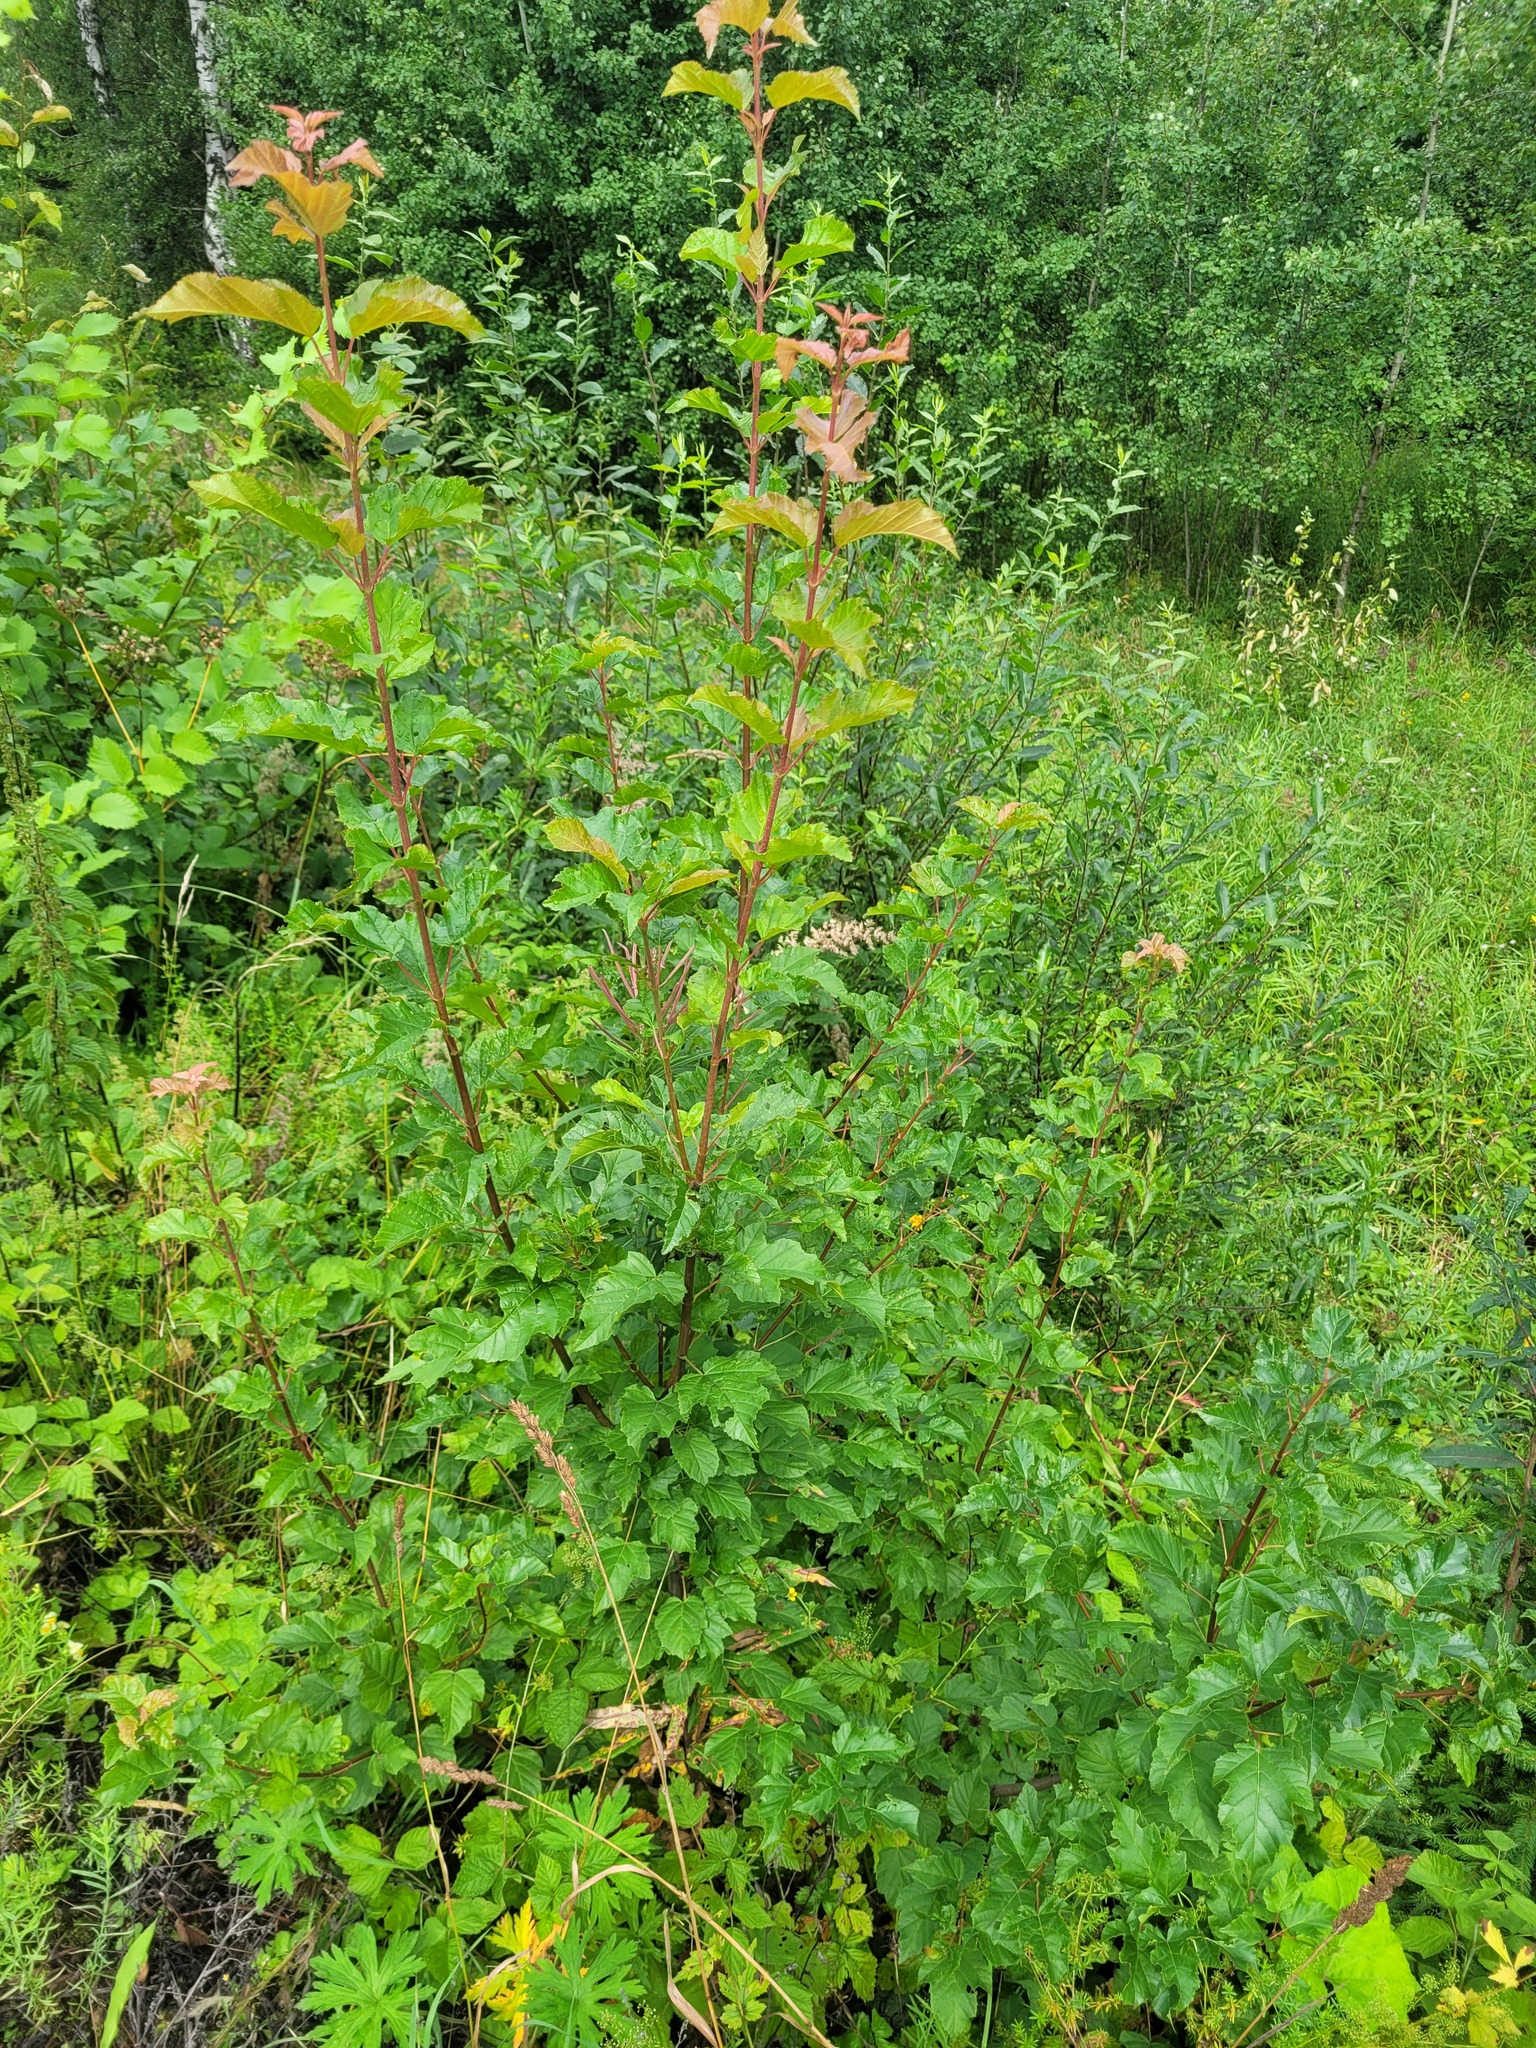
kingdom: Plantae
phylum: Tracheophyta
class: Magnoliopsida
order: Sapindales
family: Sapindaceae
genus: Acer
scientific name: Acer tataricum
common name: Tartar maple
